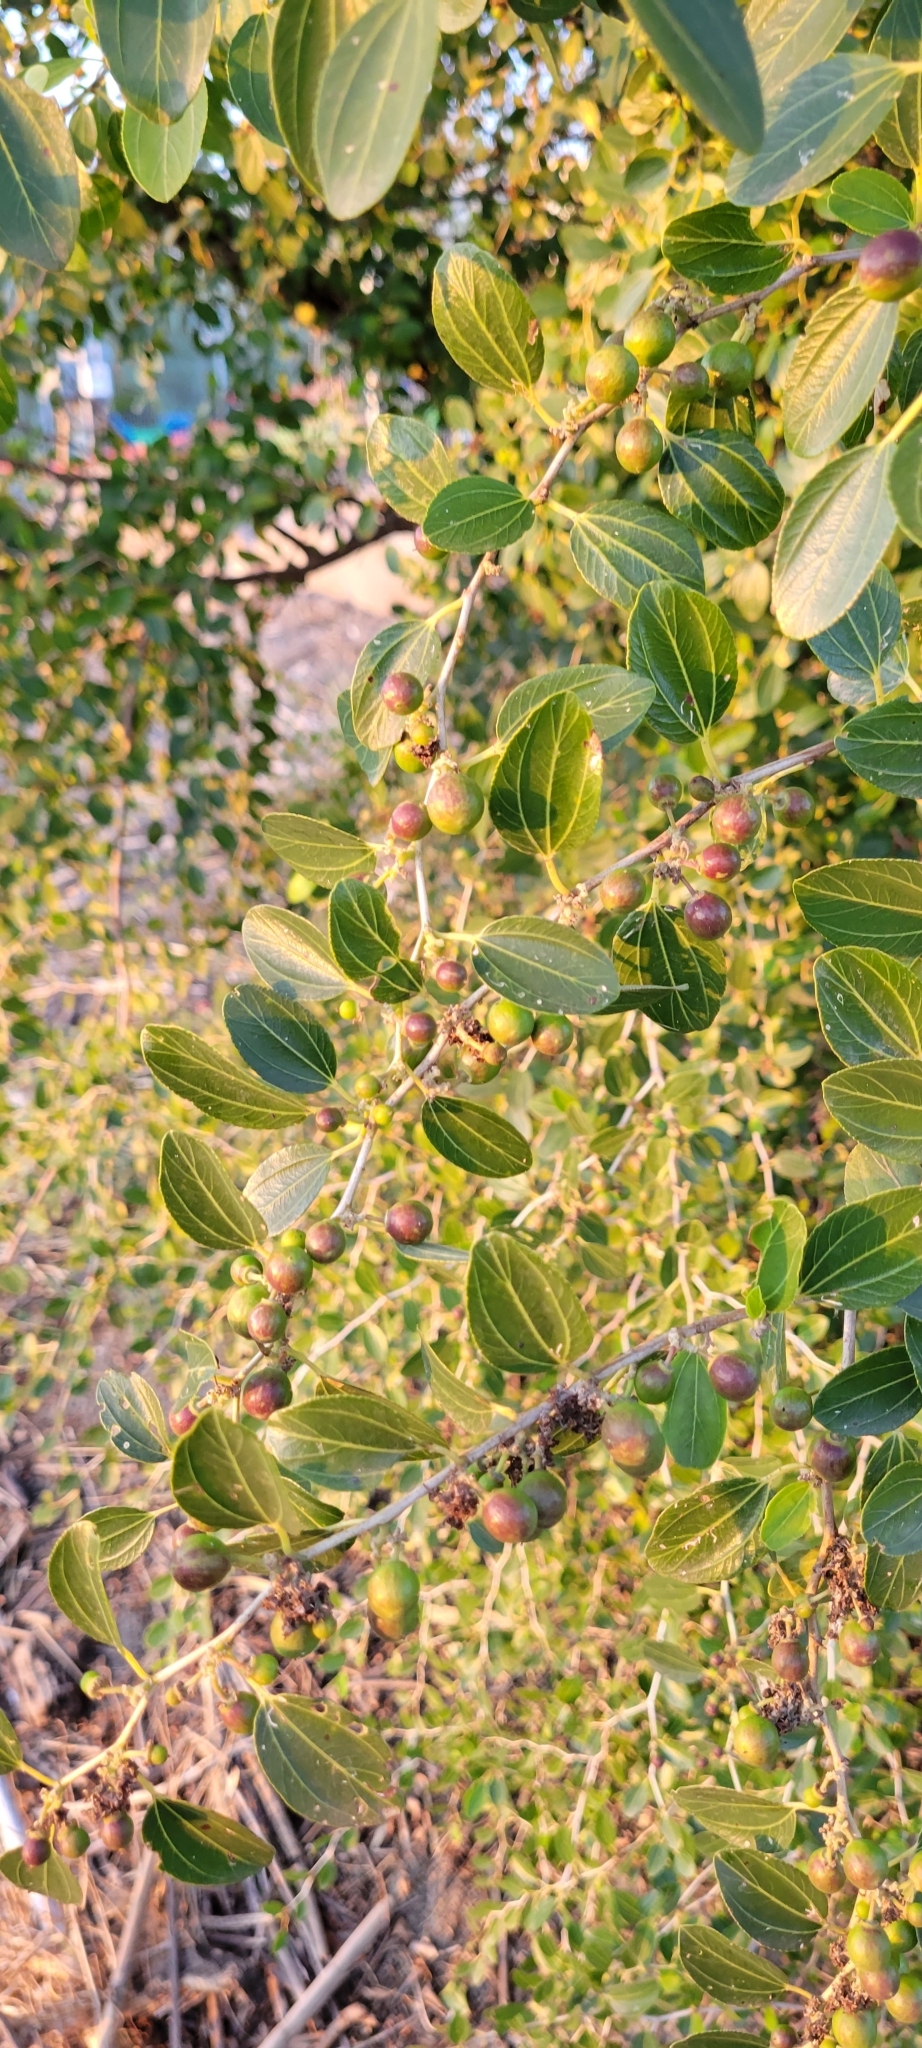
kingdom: Plantae
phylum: Tracheophyta
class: Magnoliopsida
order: Rosales
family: Rhamnaceae
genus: Ziziphus
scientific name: Ziziphus spina-christi
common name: Syrian christ-thorn
